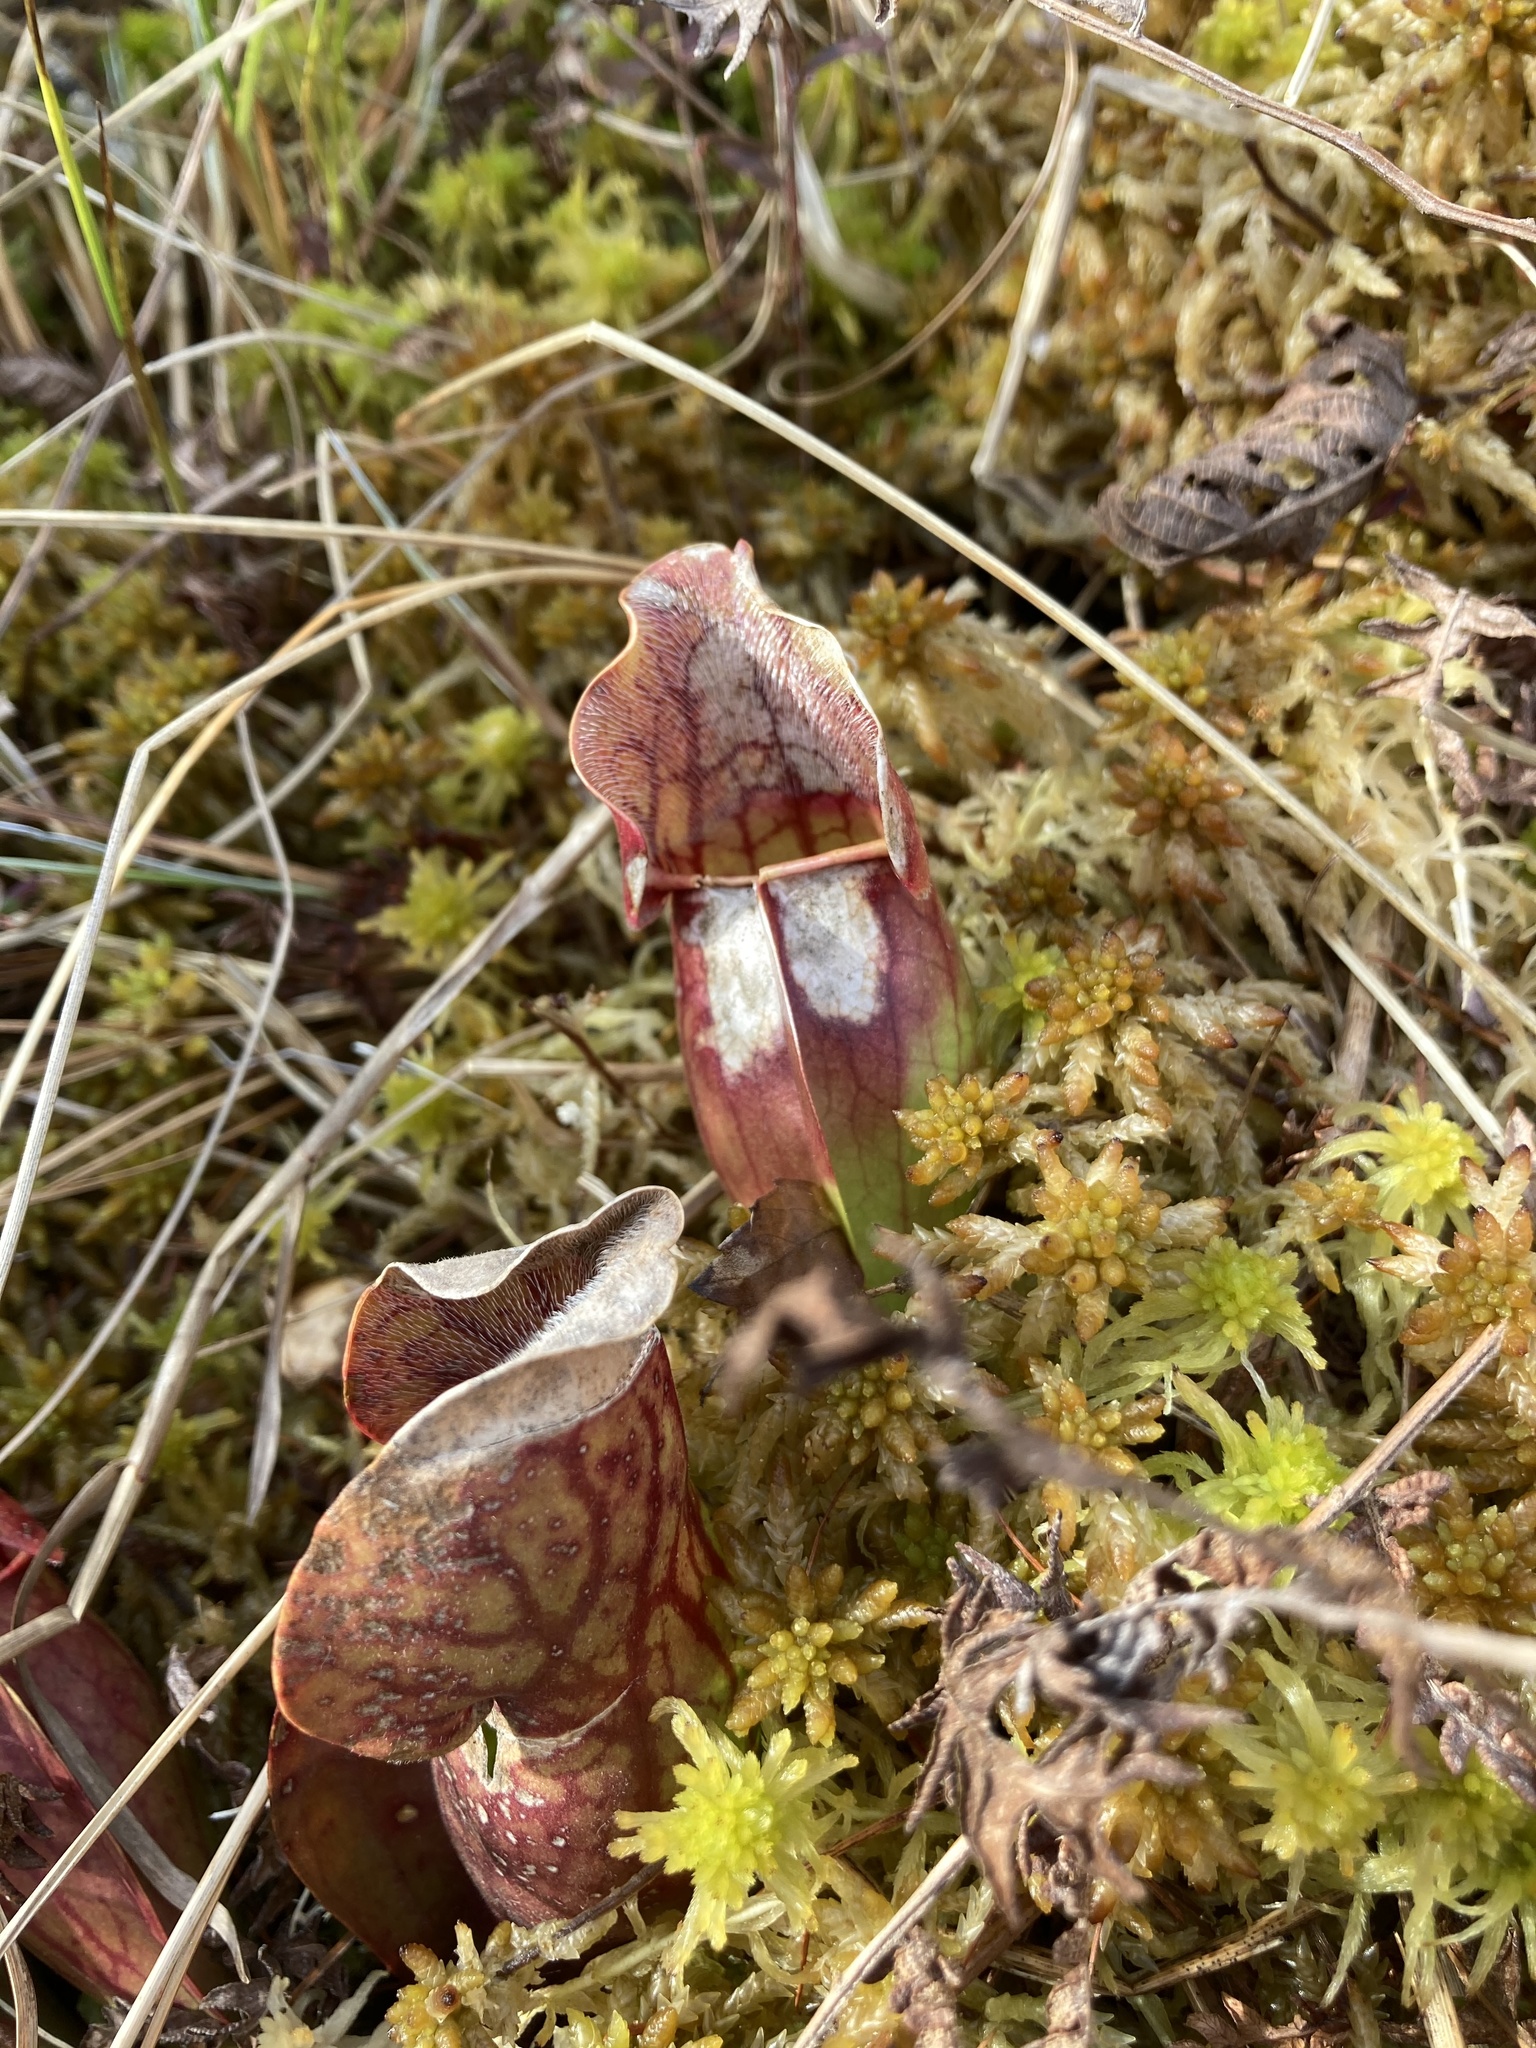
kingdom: Plantae
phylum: Tracheophyta
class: Magnoliopsida
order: Ericales
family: Sarraceniaceae
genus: Sarracenia
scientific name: Sarracenia purpurea
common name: Pitcherplant
